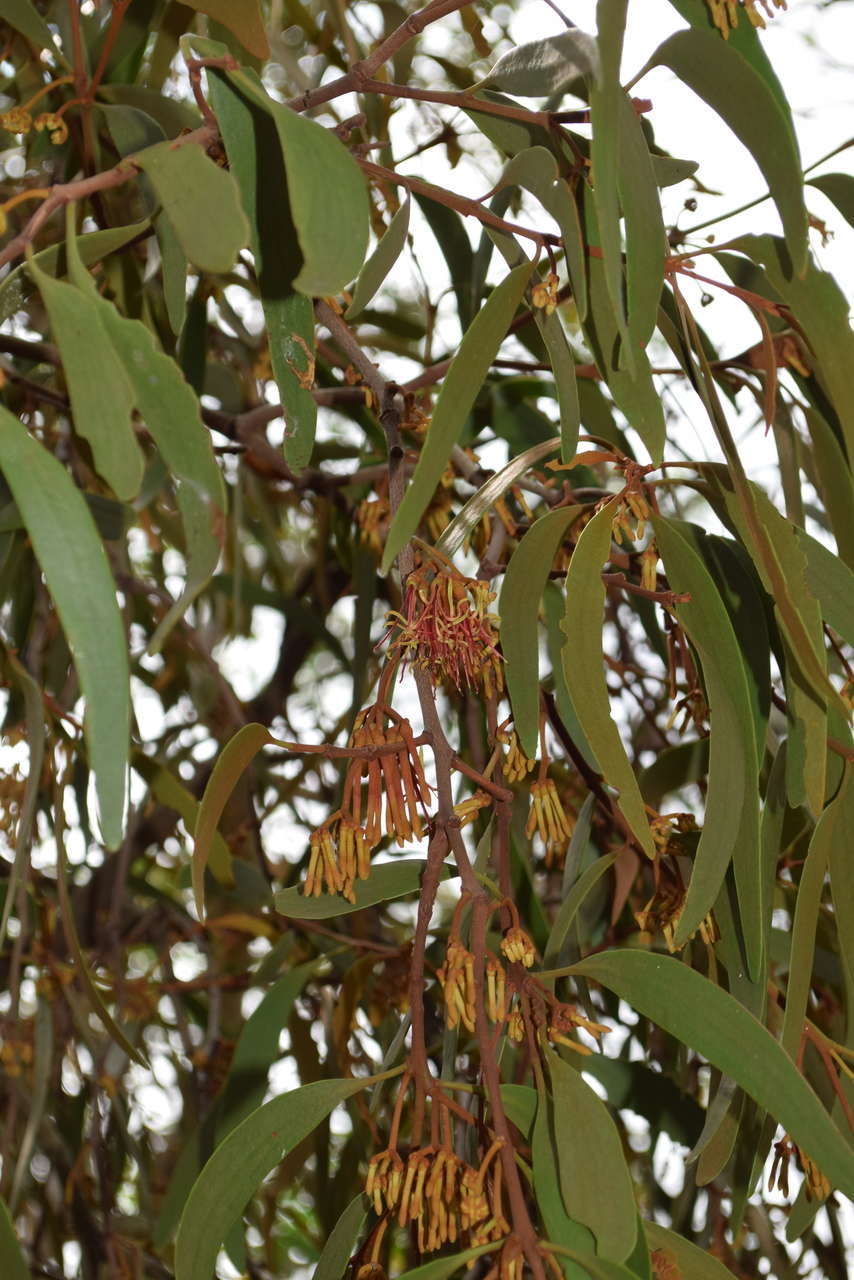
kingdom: Plantae
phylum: Tracheophyta
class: Magnoliopsida
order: Santalales
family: Loranthaceae
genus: Amyema
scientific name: Amyema pendula
